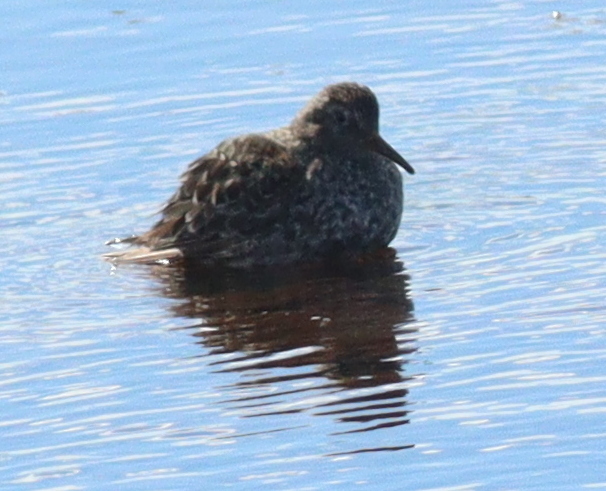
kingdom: Animalia
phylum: Chordata
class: Aves
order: Charadriiformes
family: Scolopacidae
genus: Calidris
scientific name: Calidris maritima
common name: Purple sandpiper
